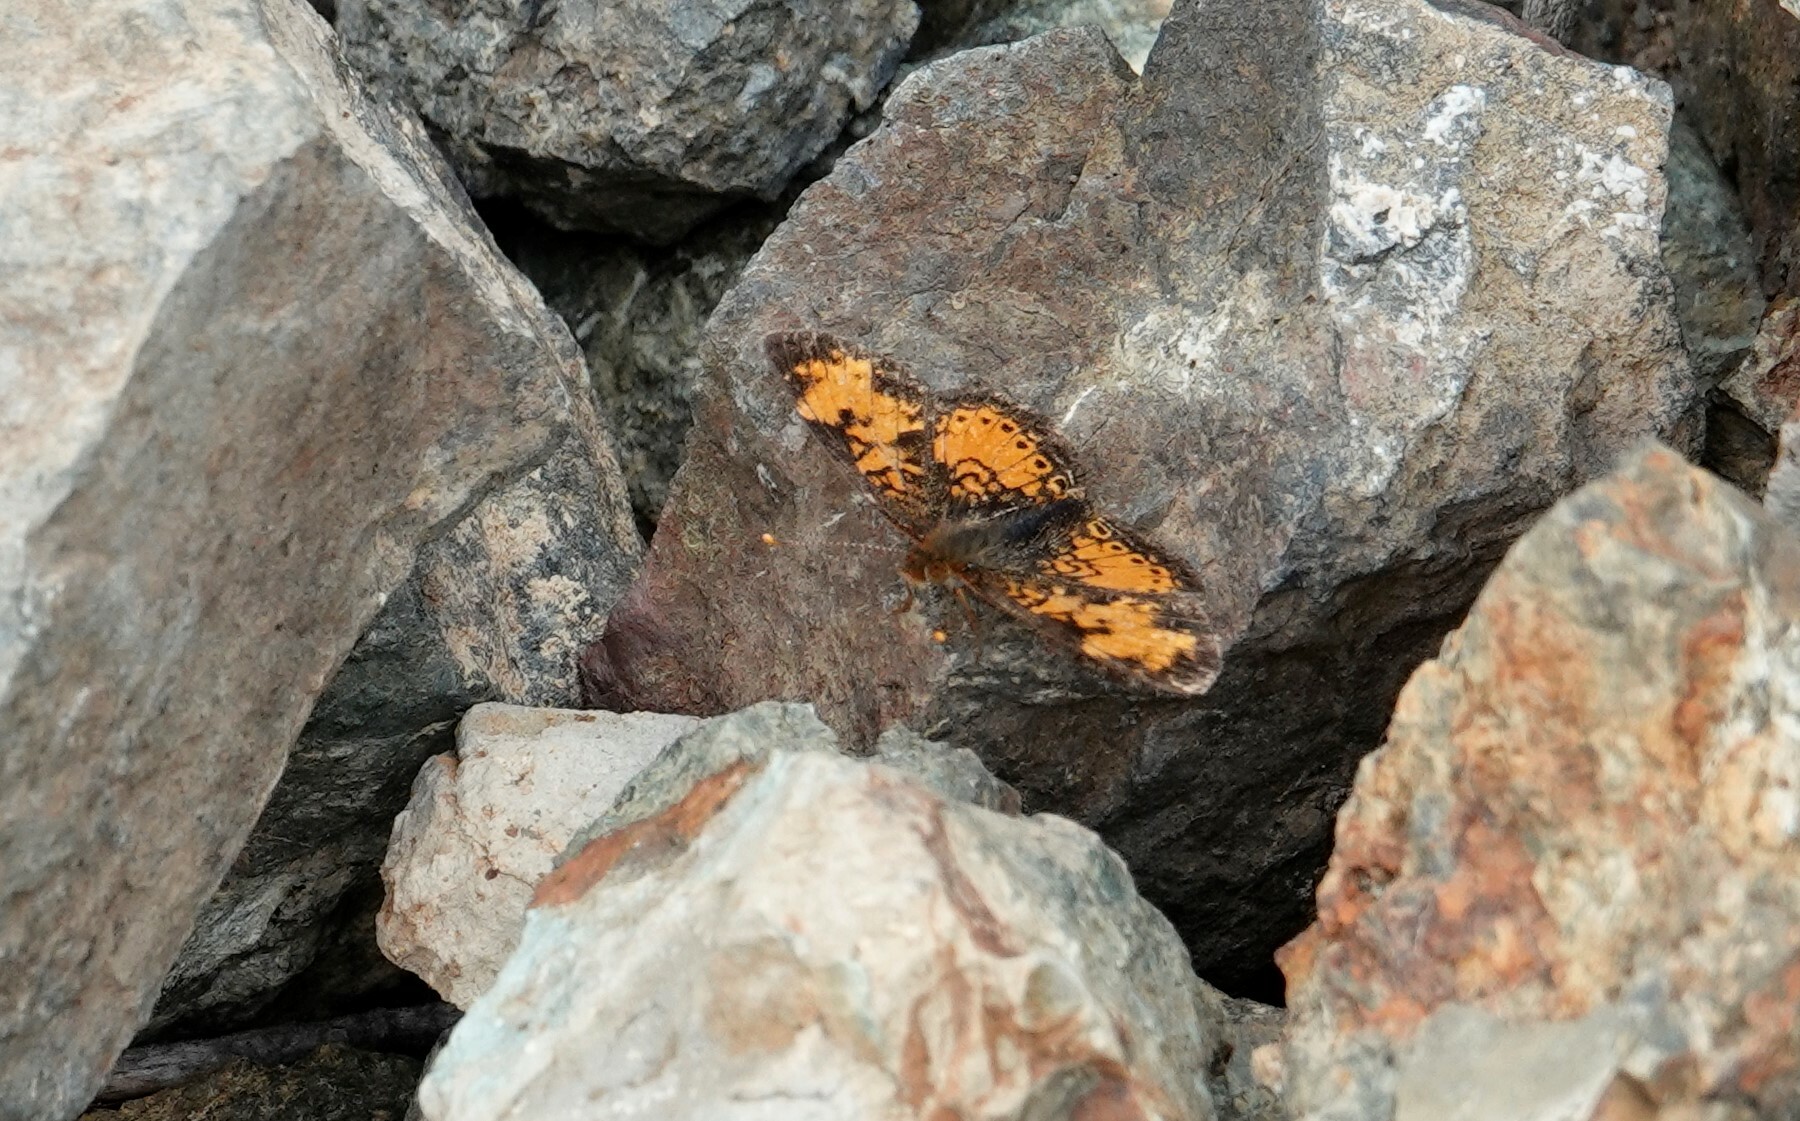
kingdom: Animalia
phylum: Arthropoda
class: Insecta
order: Lepidoptera
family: Nymphalidae
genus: Phyciodes
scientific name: Phyciodes tharos
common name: Pearl crescent
